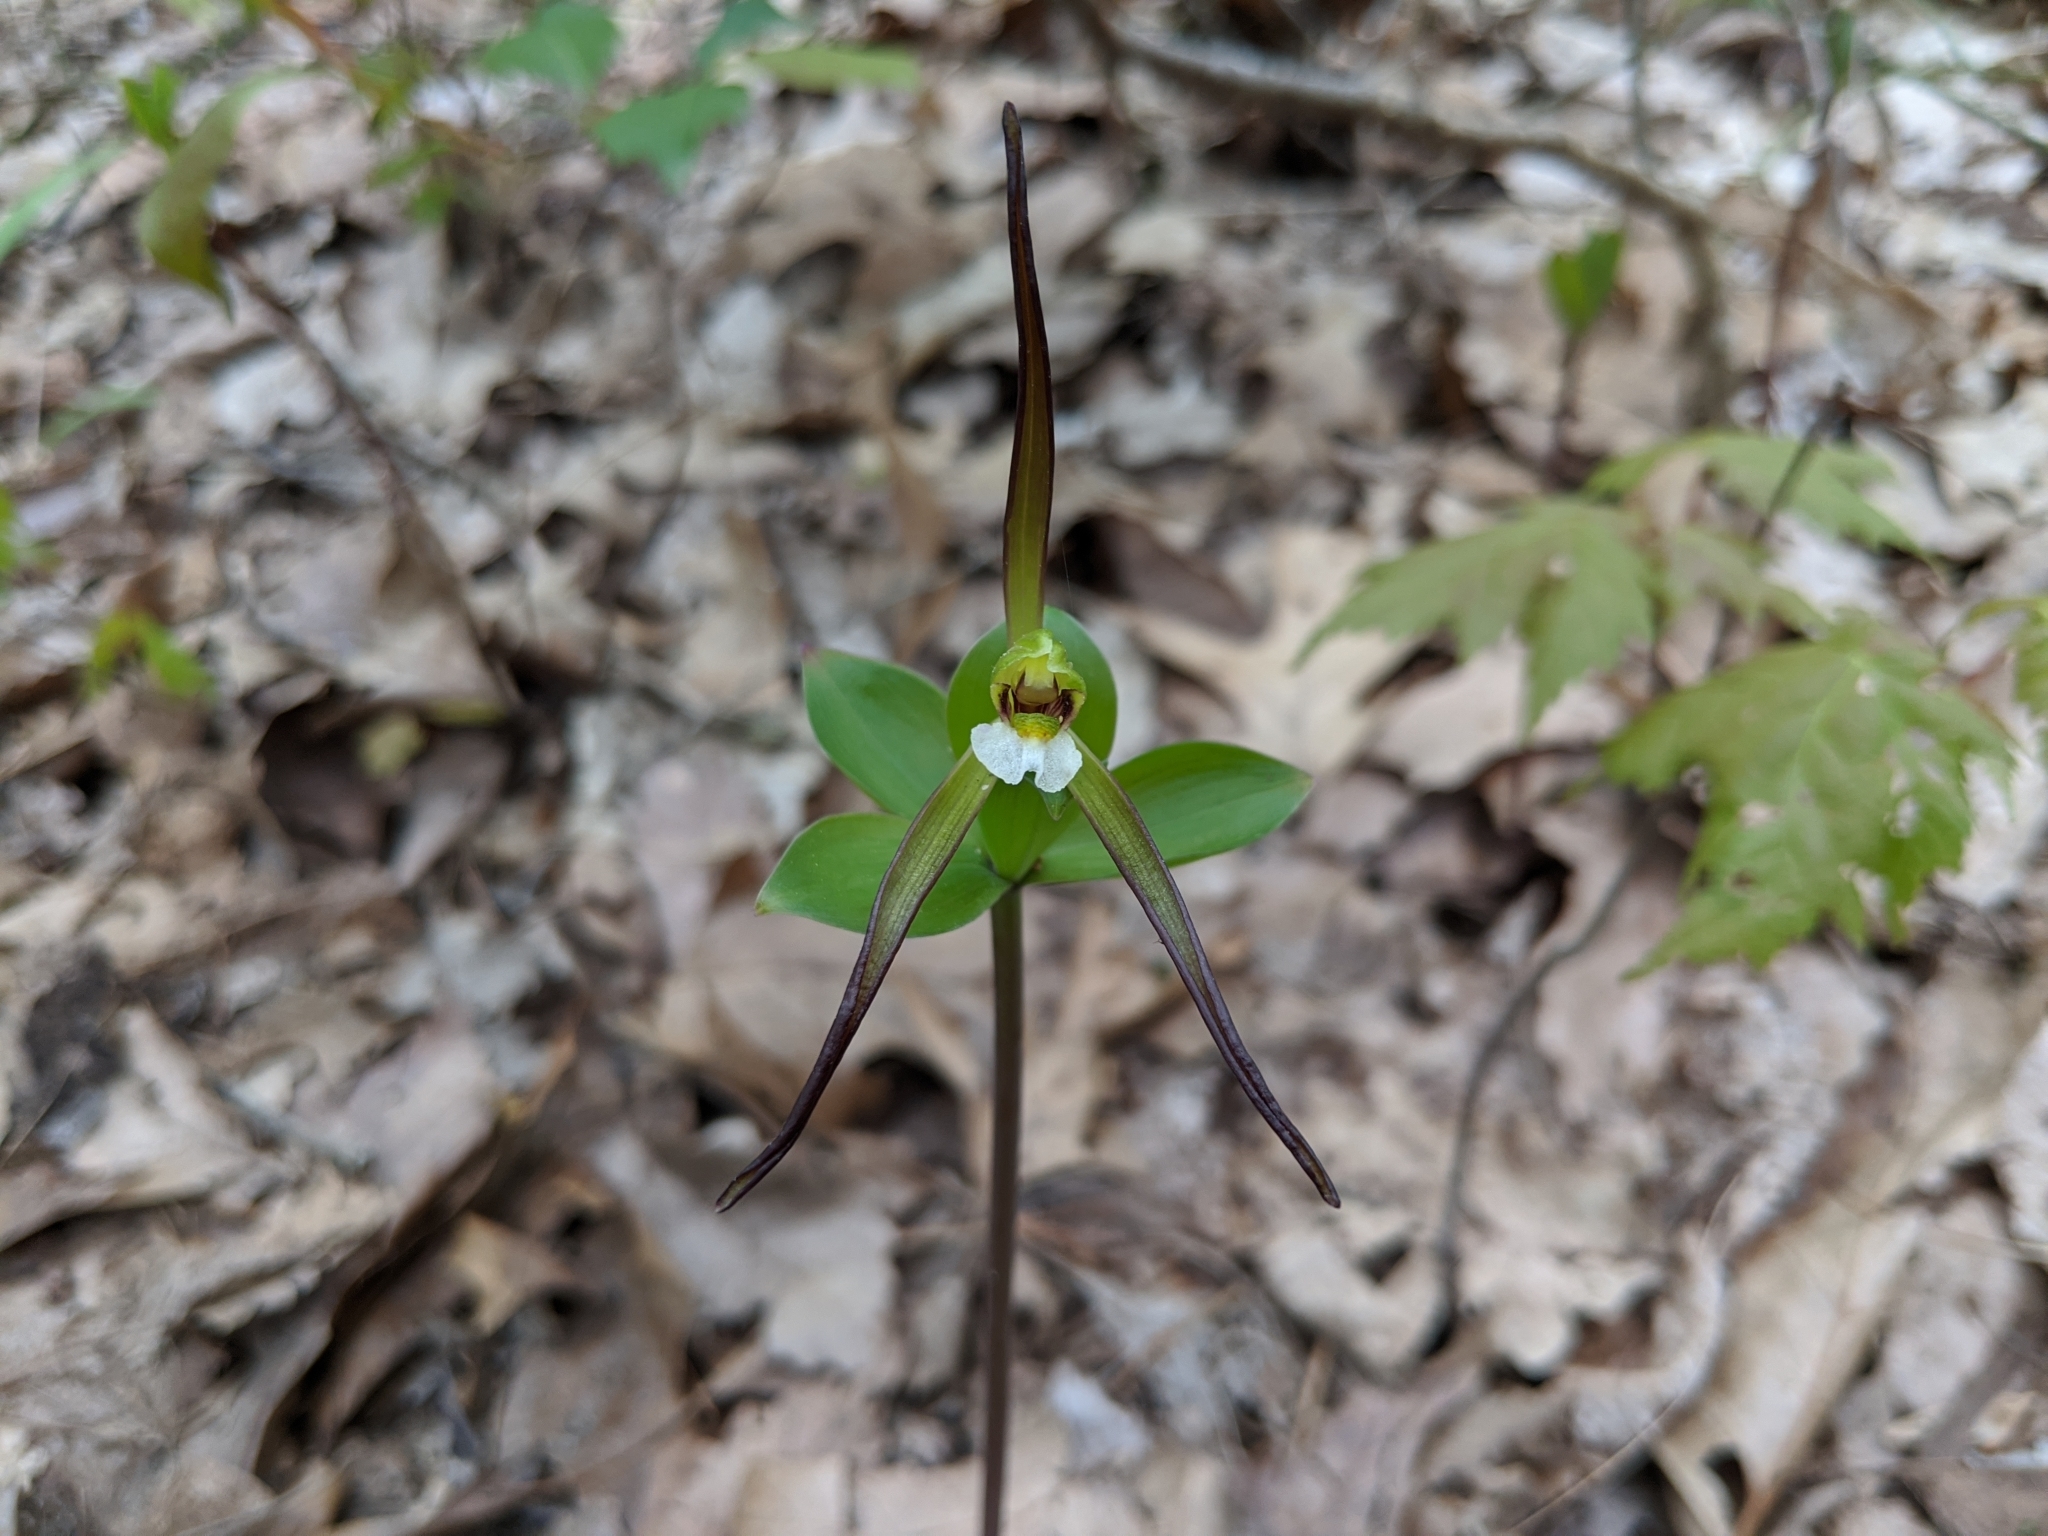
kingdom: Plantae
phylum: Tracheophyta
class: Liliopsida
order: Asparagales
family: Orchidaceae
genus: Isotria
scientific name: Isotria verticillata
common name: Large whorled pogonia
